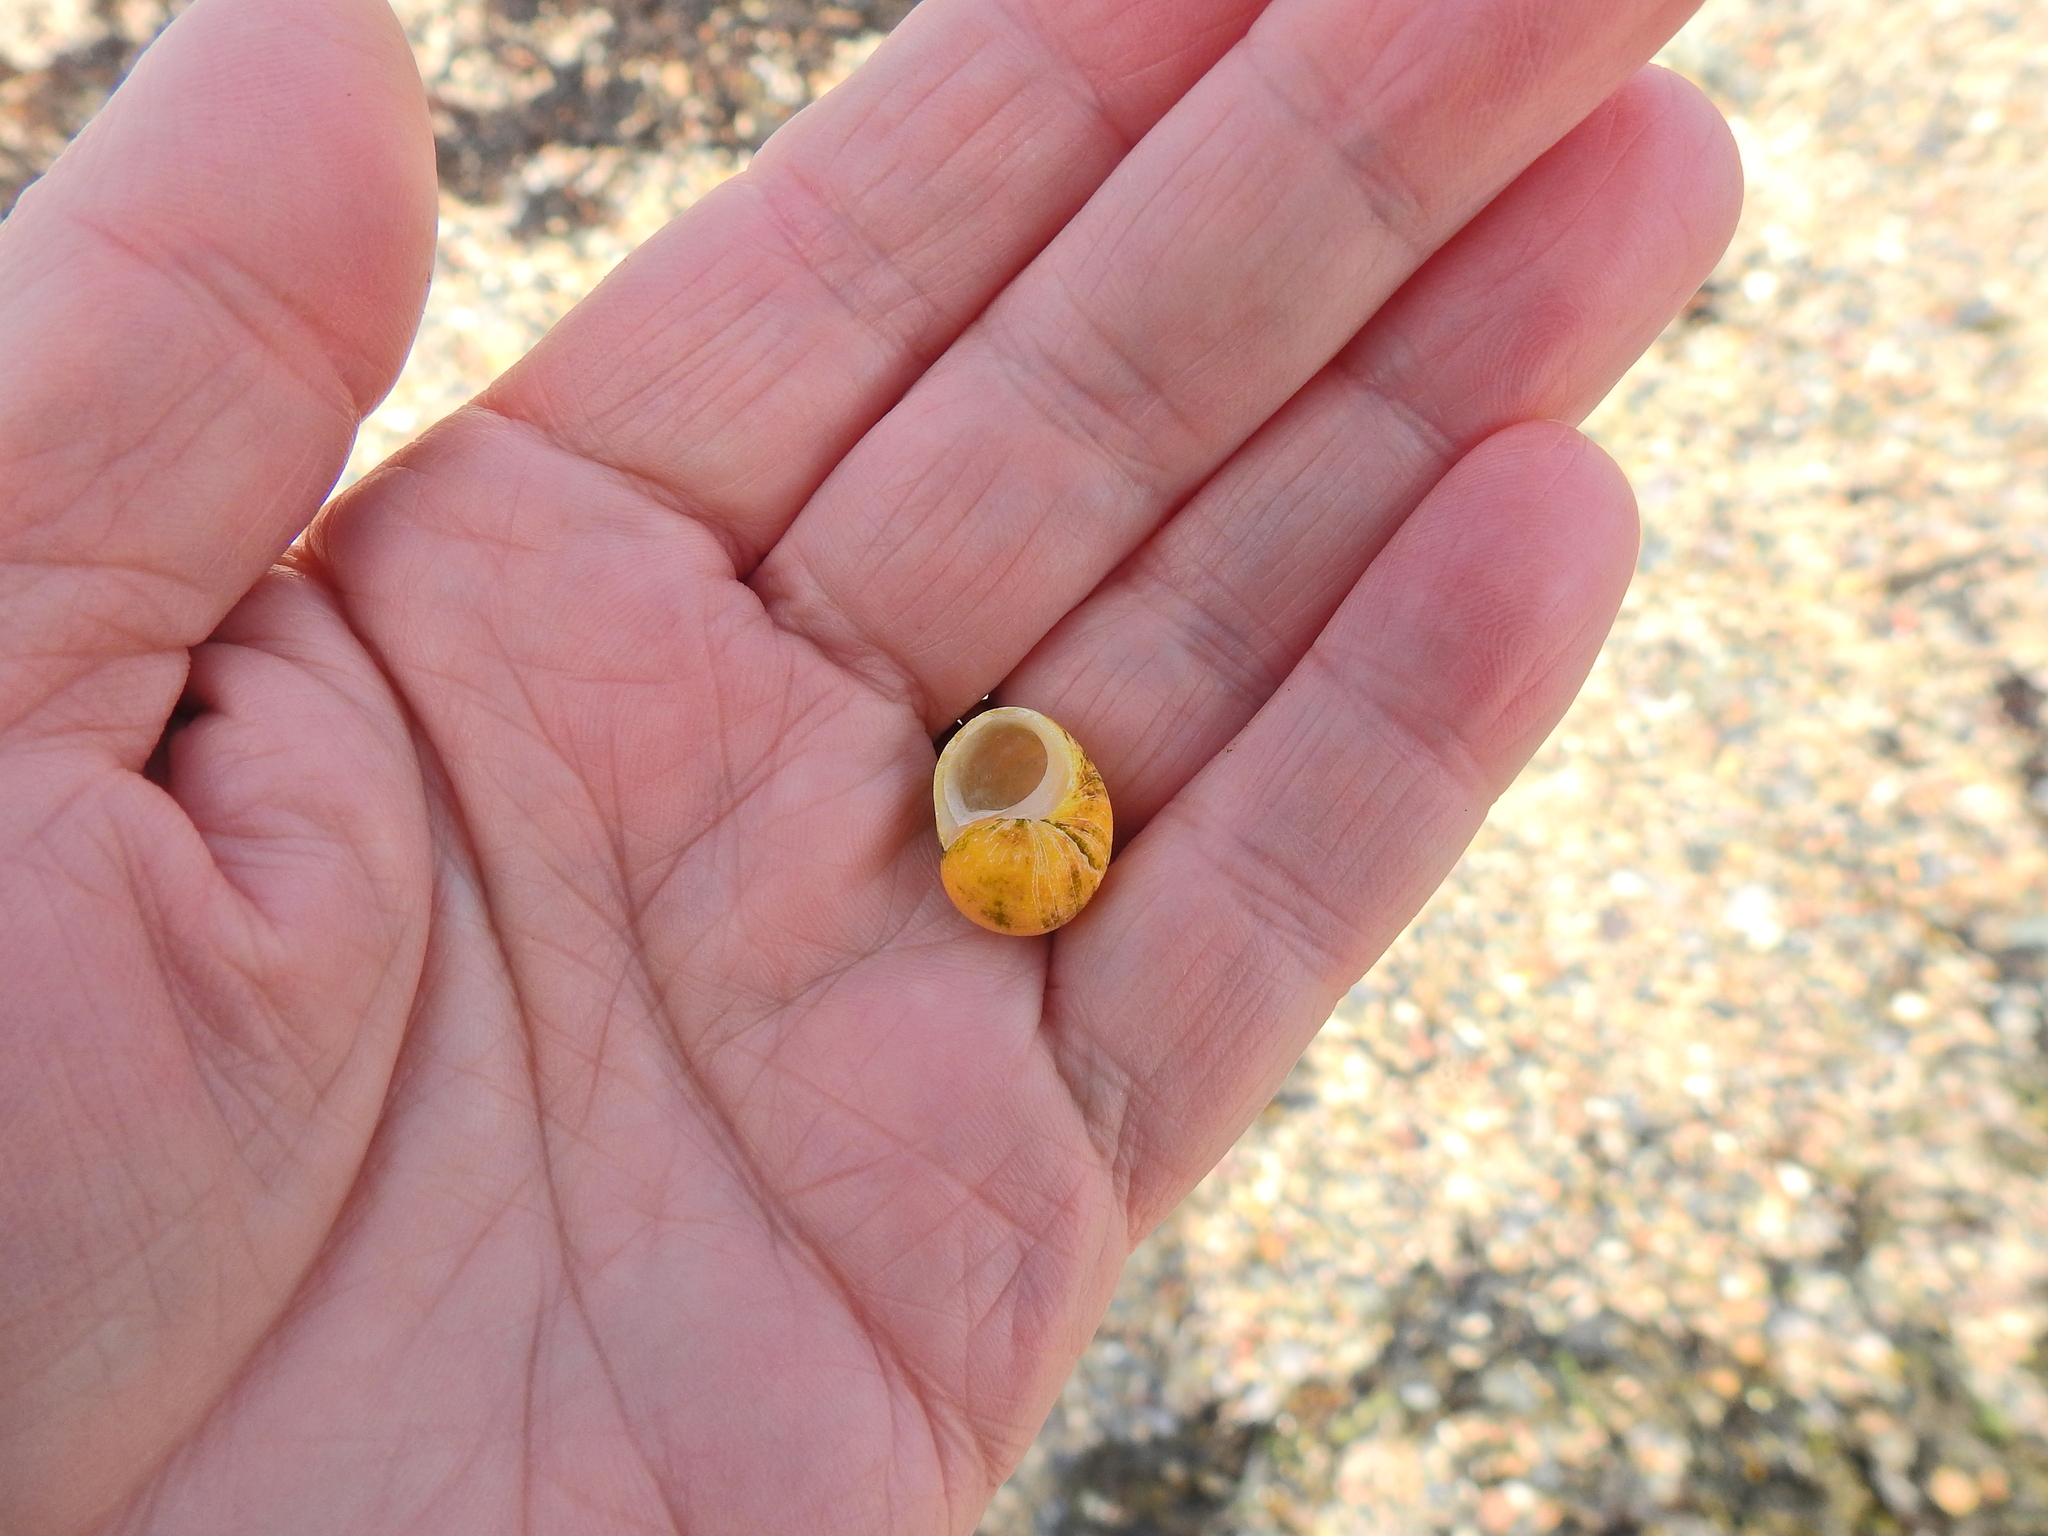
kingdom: Animalia
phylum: Mollusca
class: Gastropoda
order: Littorinimorpha
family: Littorinidae
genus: Littorina
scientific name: Littorina
